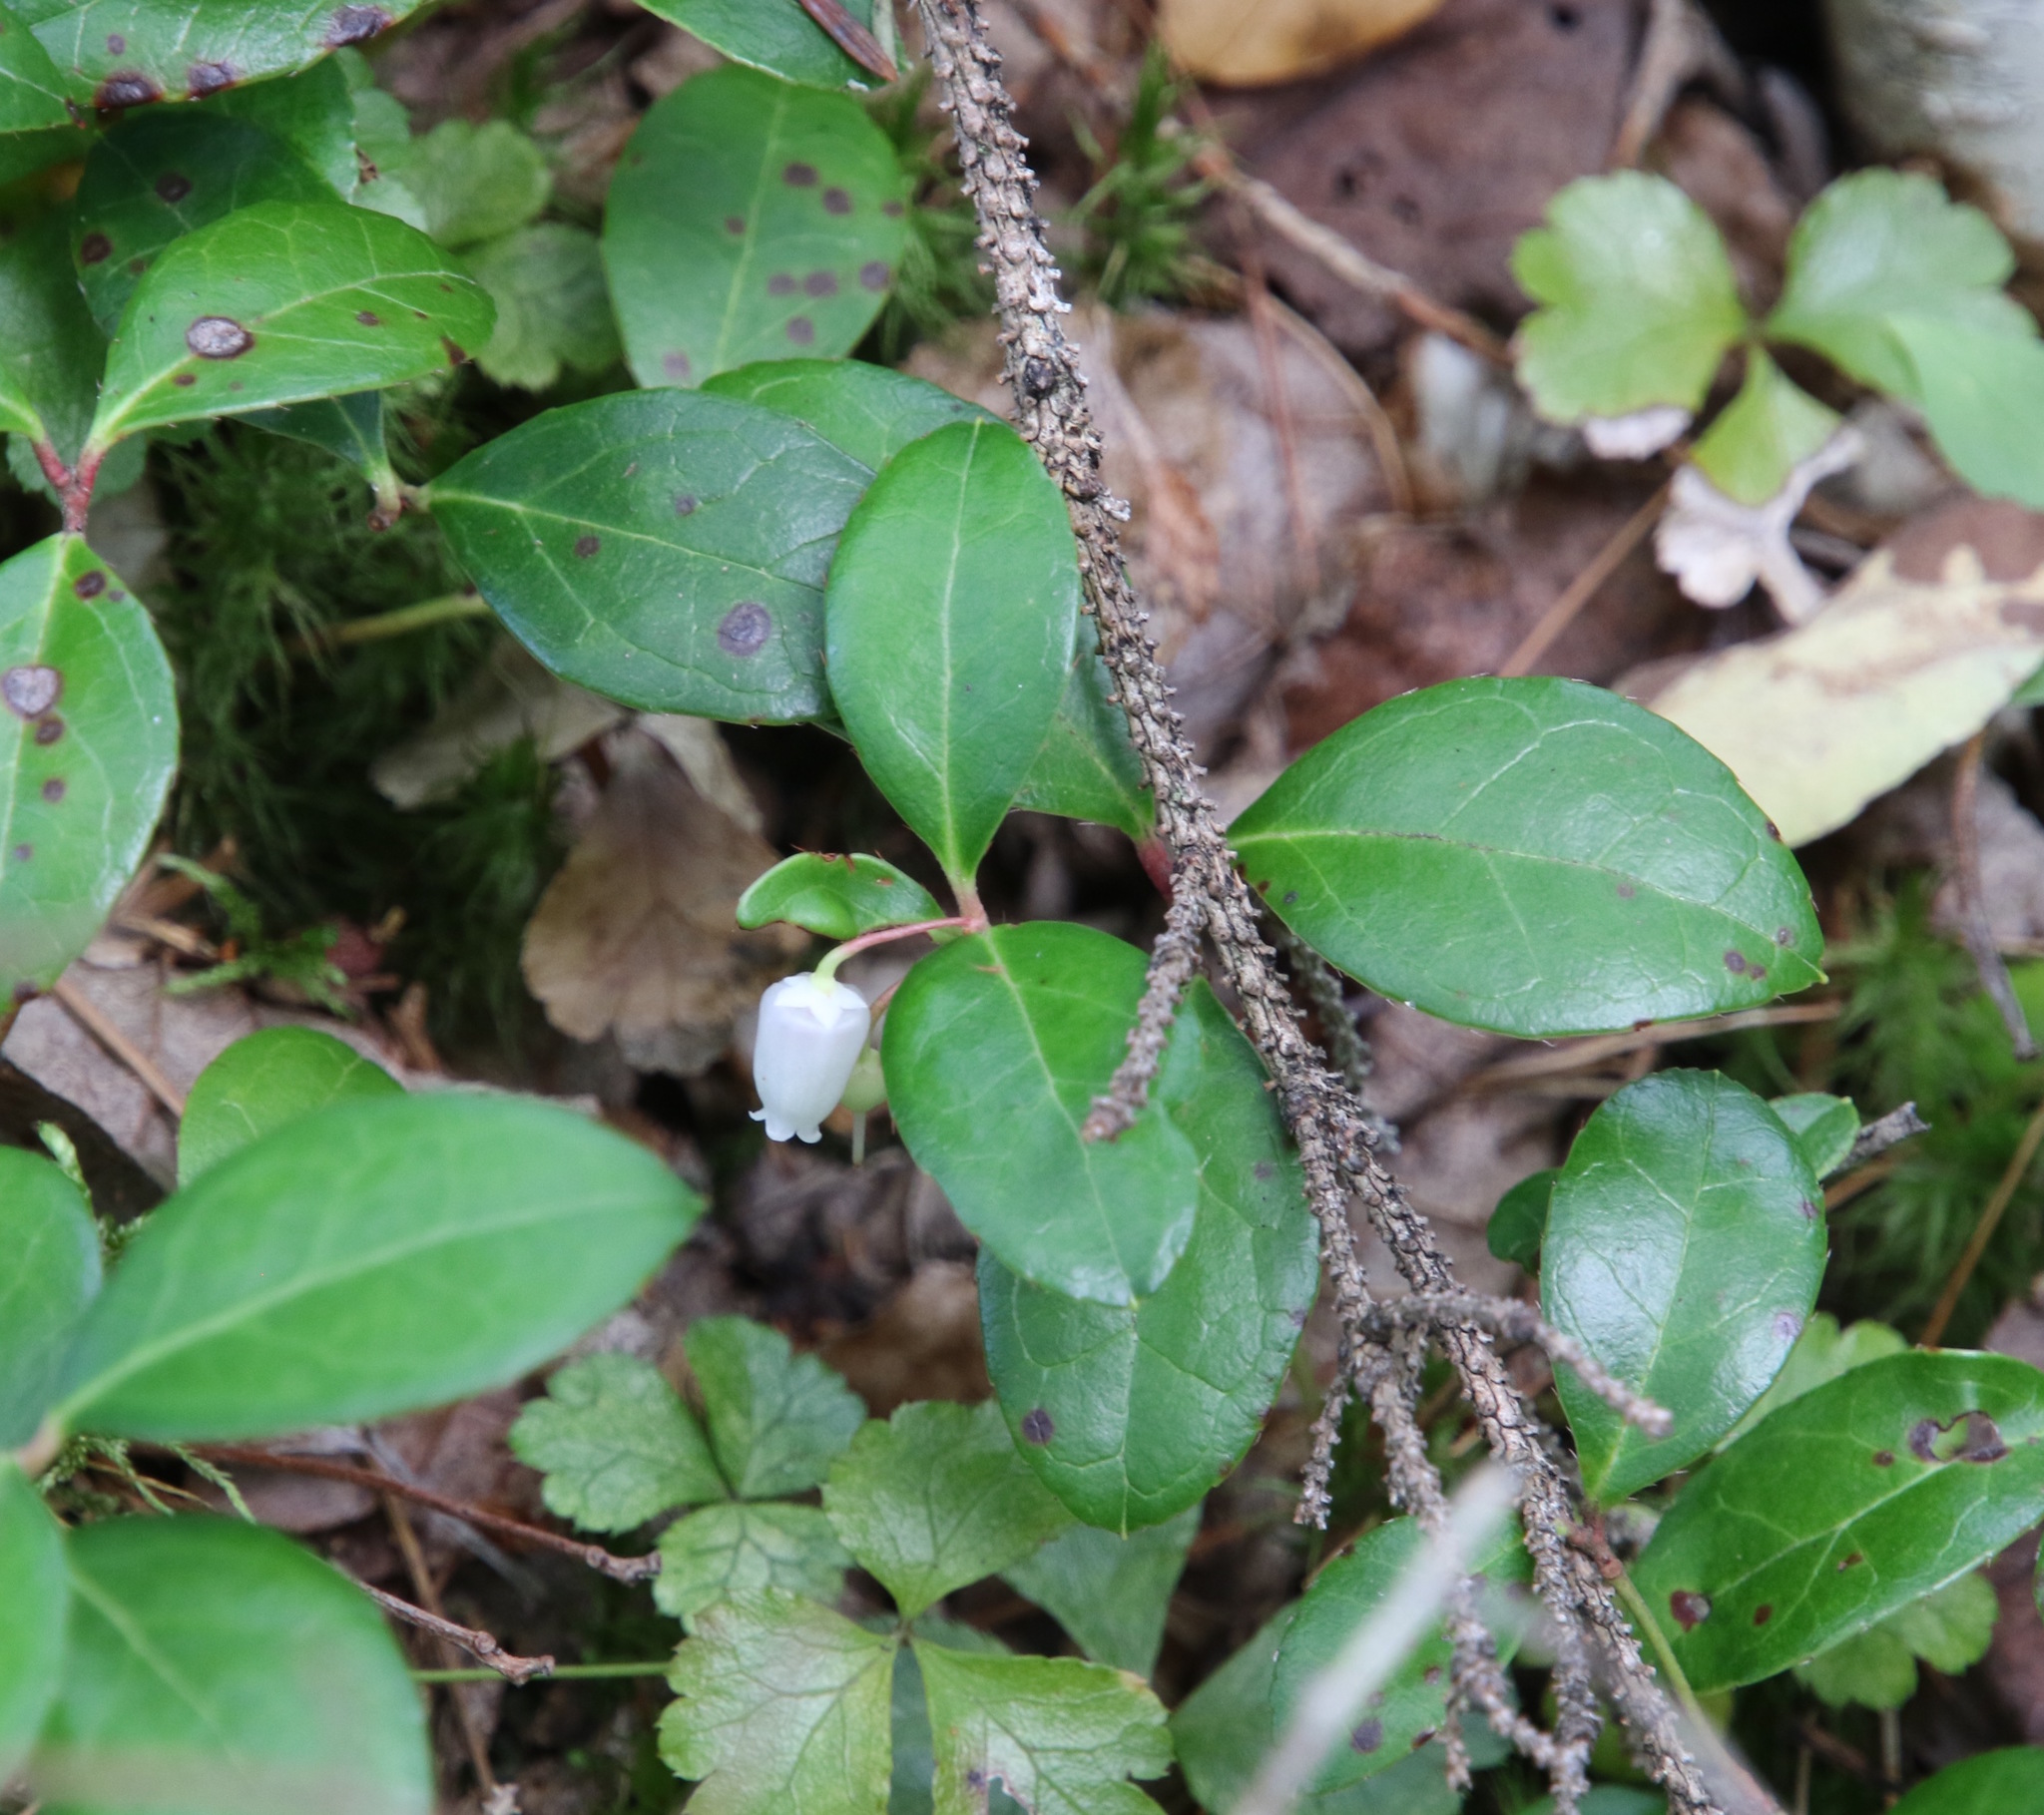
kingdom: Plantae
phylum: Tracheophyta
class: Magnoliopsida
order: Ericales
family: Ericaceae
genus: Gaultheria
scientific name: Gaultheria procumbens
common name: Checkerberry
